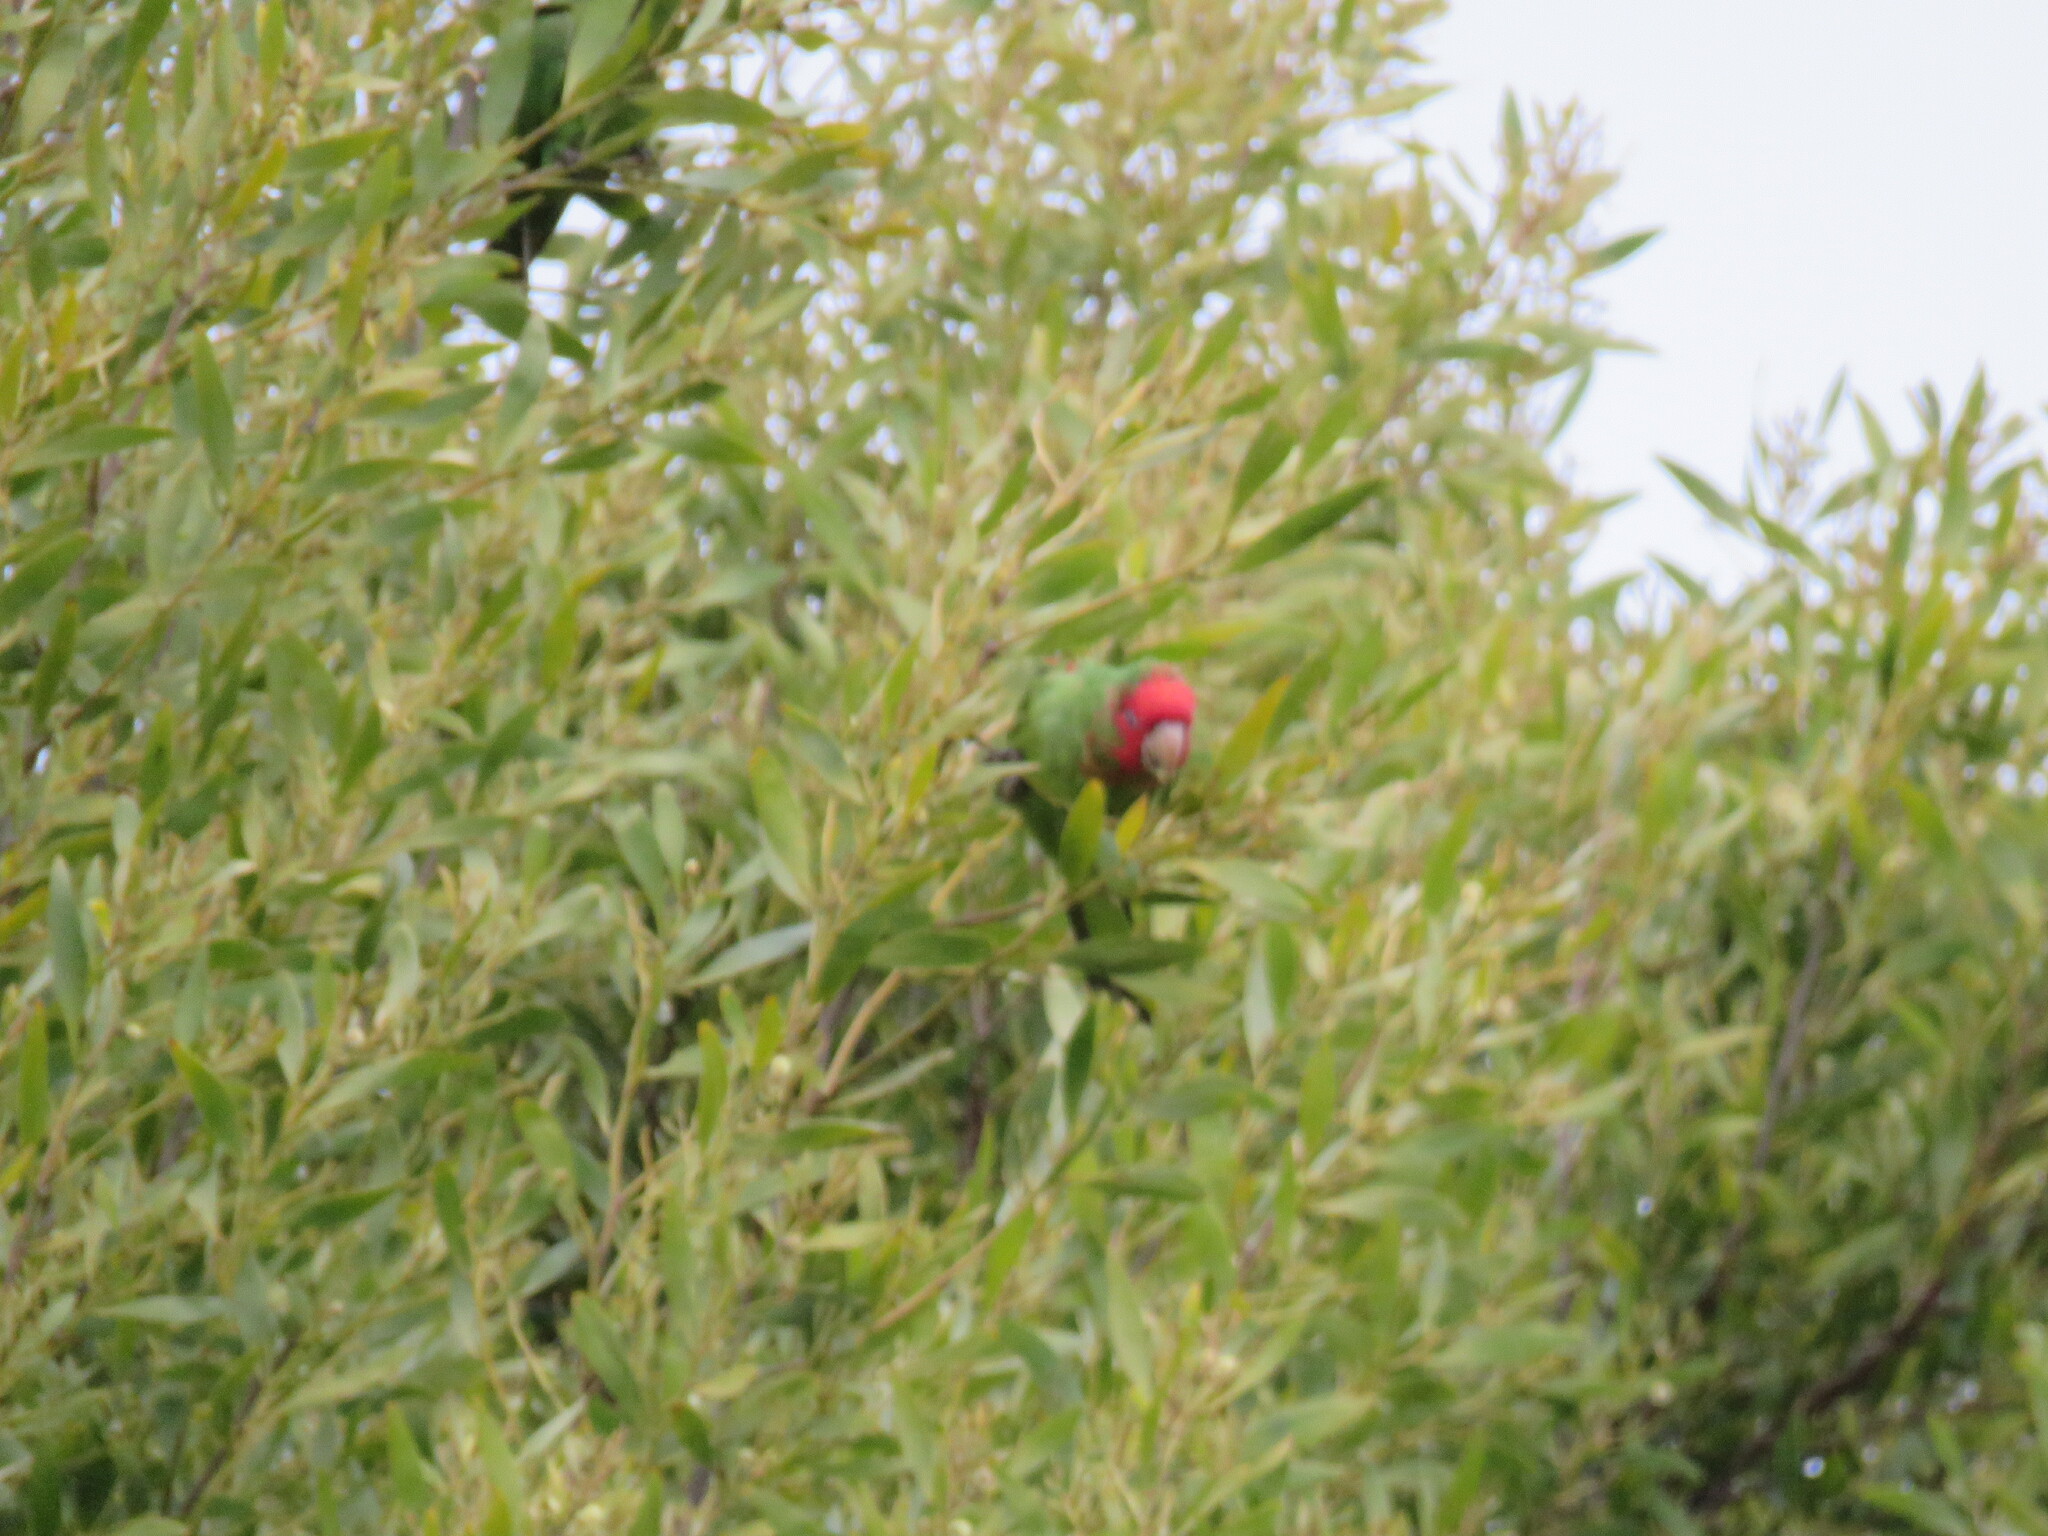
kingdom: Animalia
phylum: Chordata
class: Aves
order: Psittaciformes
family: Psittacidae
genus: Aratinga
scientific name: Aratinga erythrogenys
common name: Red-masked parakeet
